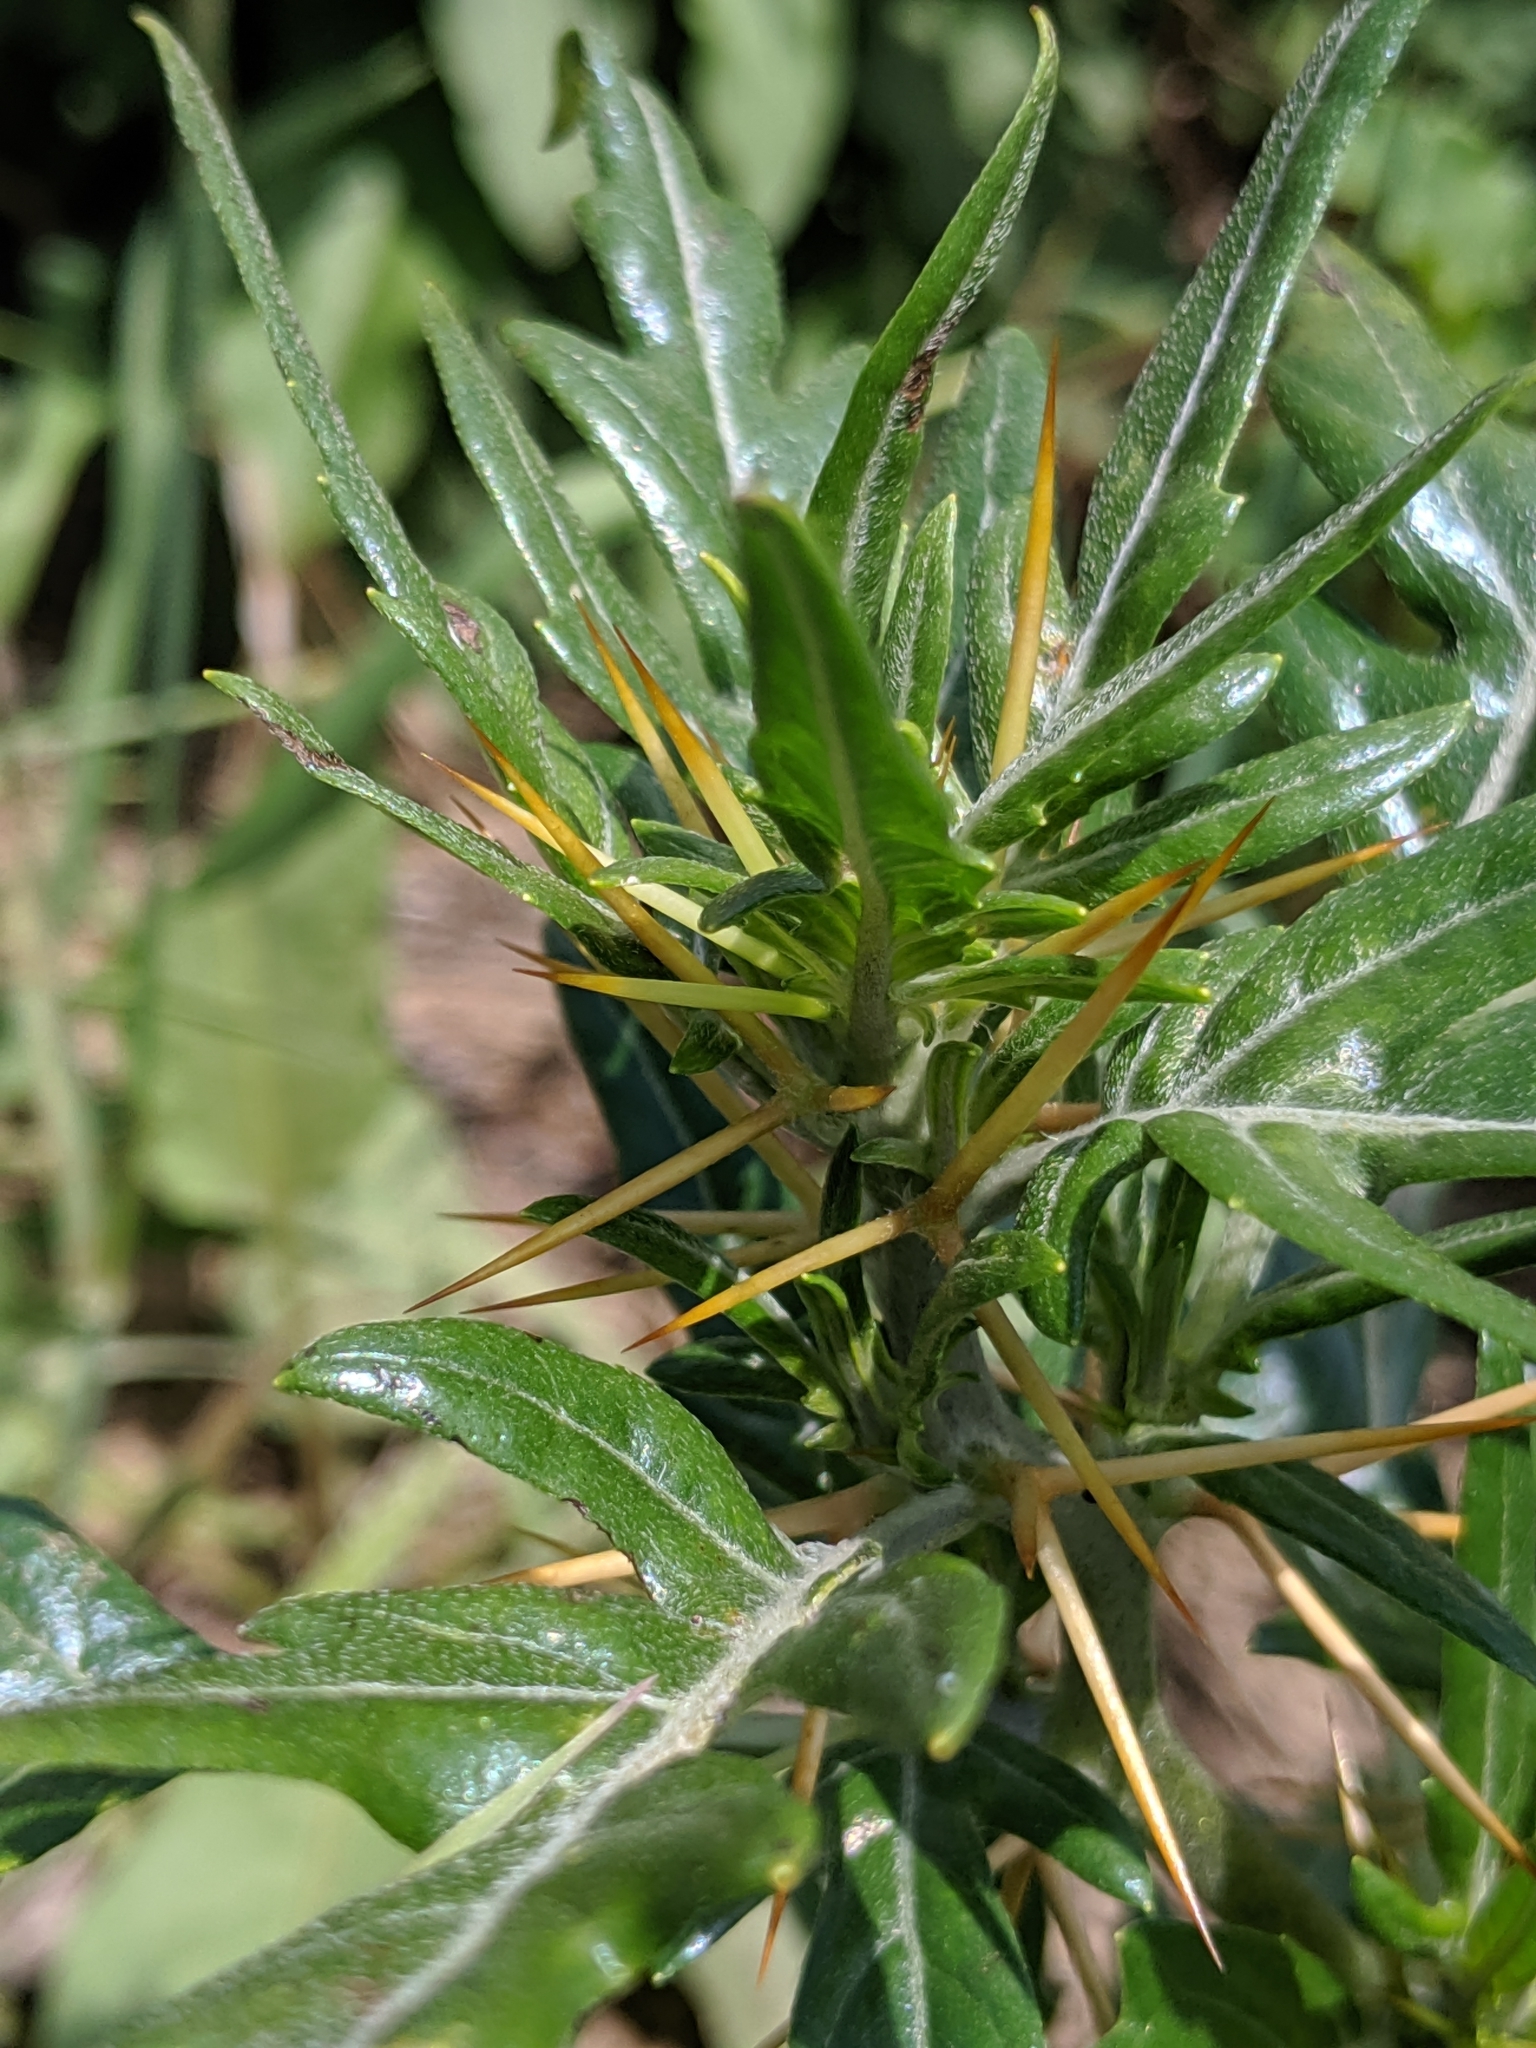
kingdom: Plantae
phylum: Tracheophyta
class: Magnoliopsida
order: Asterales
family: Asteraceae
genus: Xanthium
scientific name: Xanthium spinosum
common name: Spiny cocklebur
